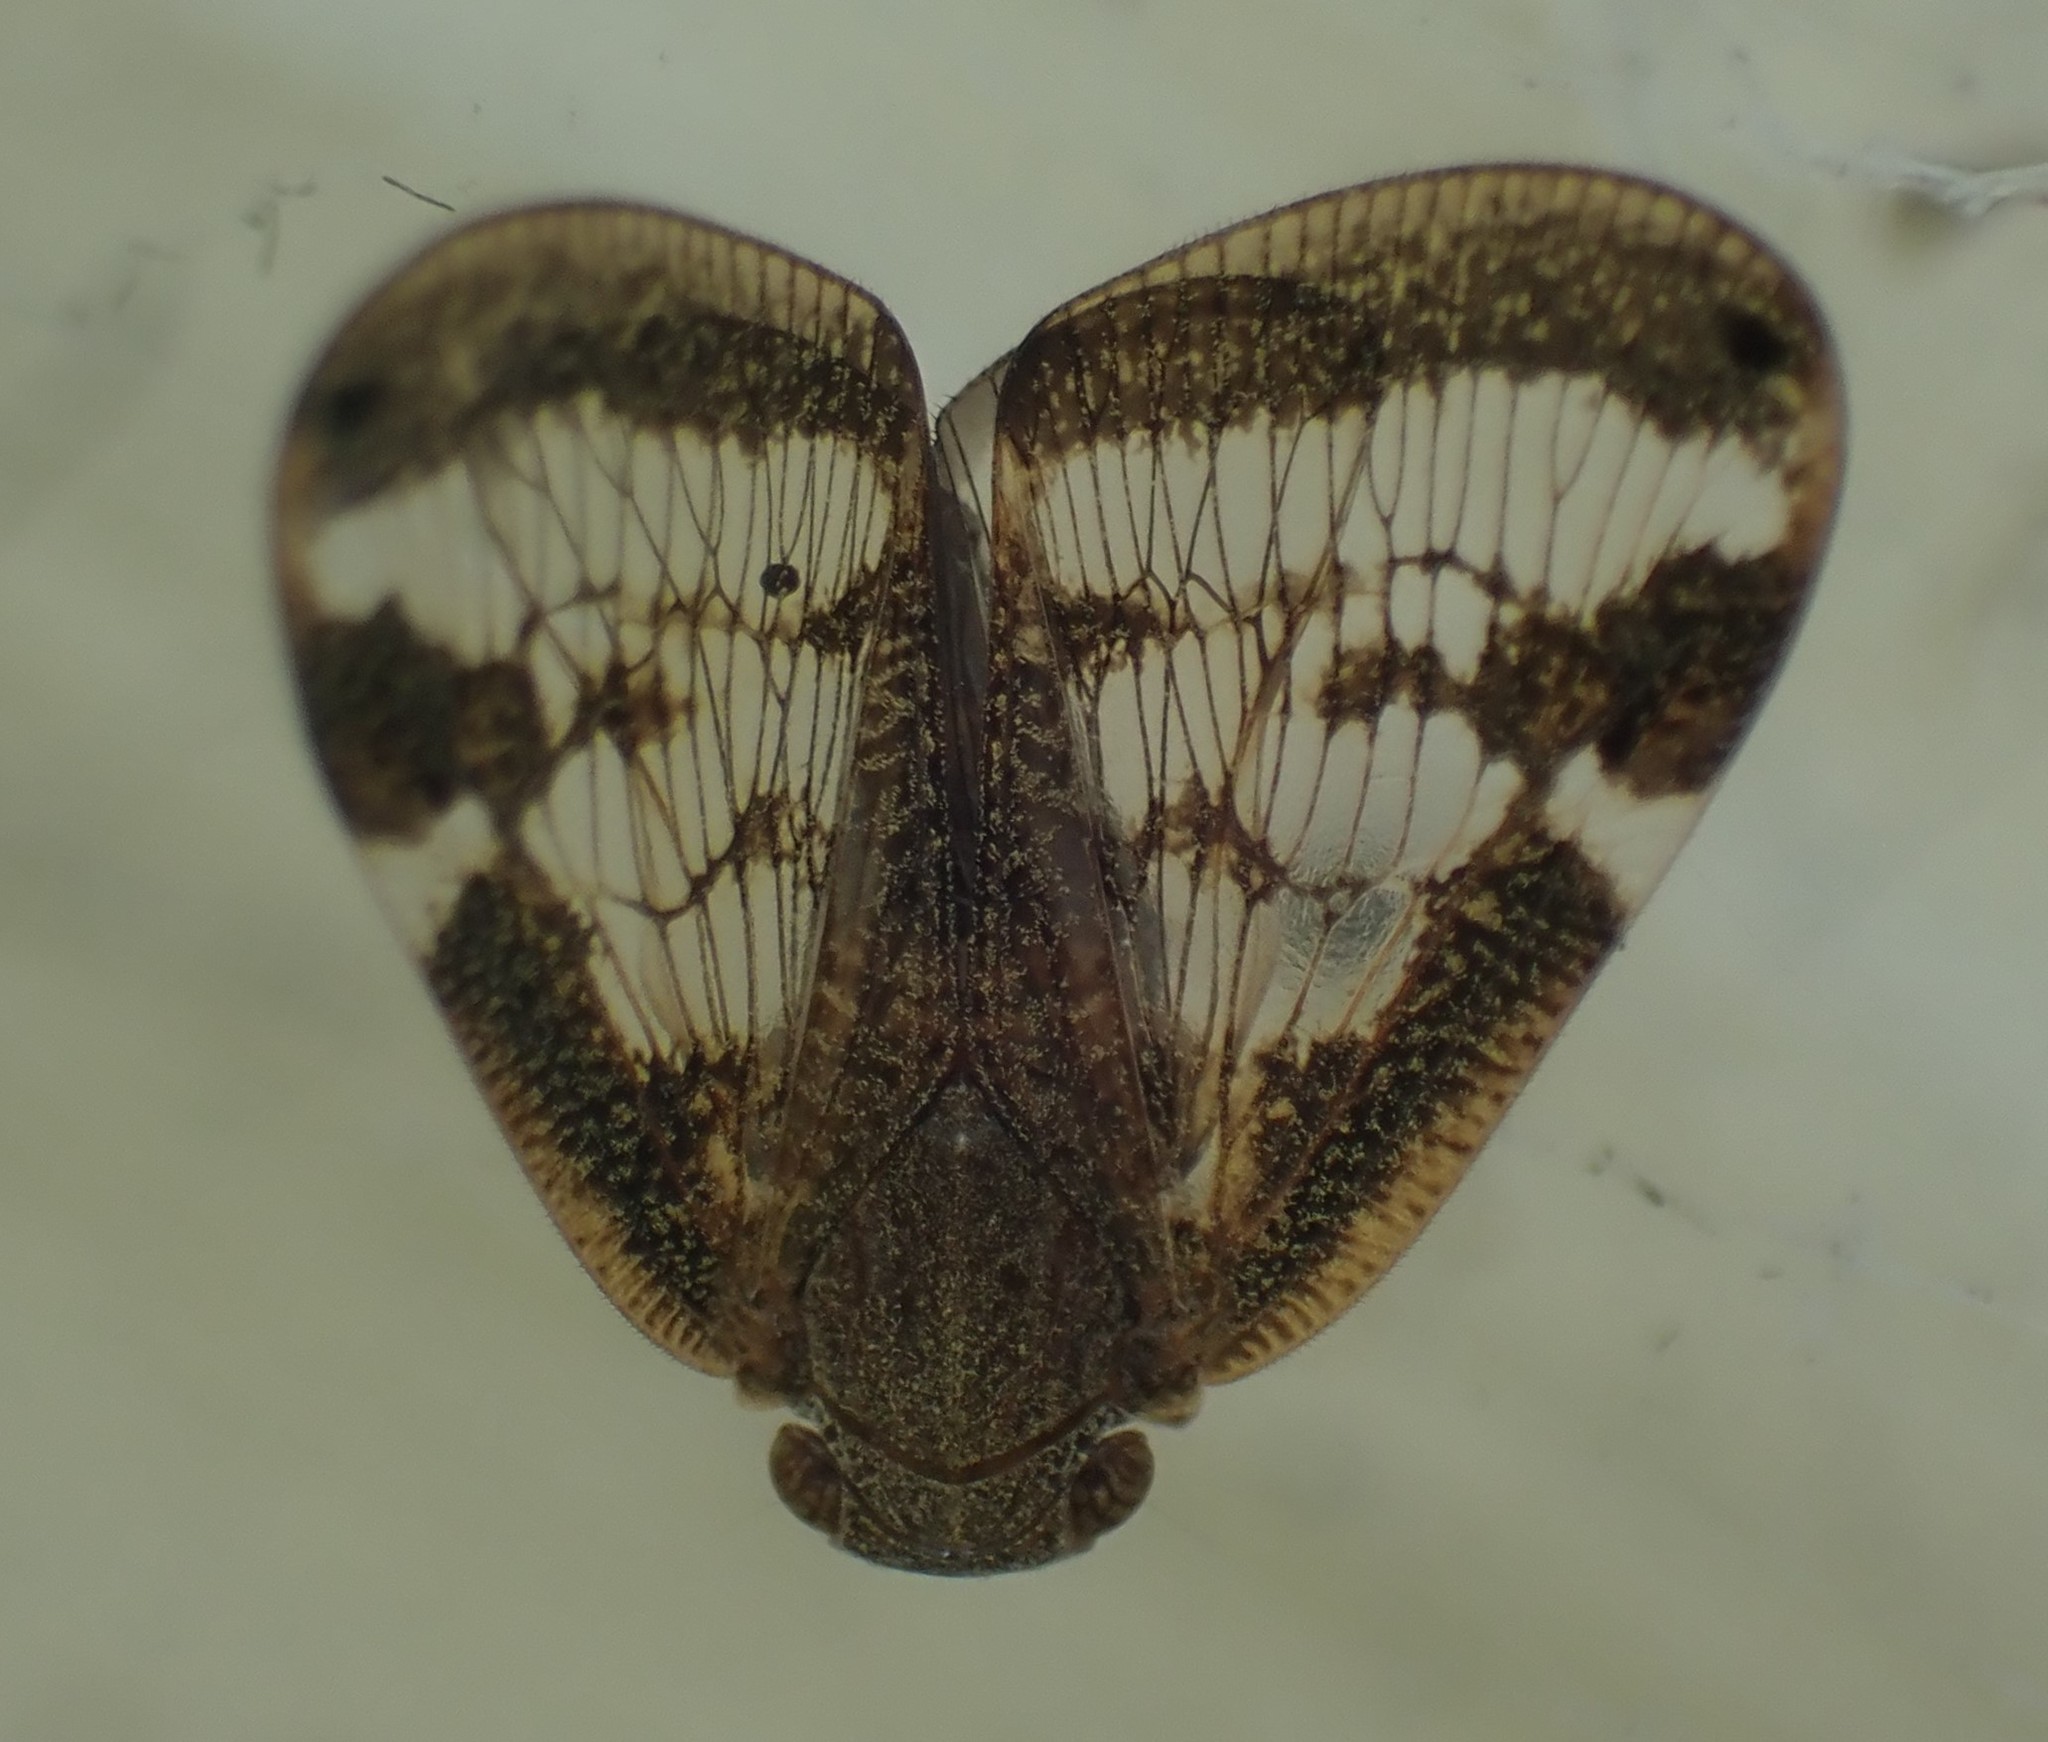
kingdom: Animalia
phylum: Arthropoda
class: Insecta
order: Hemiptera
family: Ricaniidae
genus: Scolypopa
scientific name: Scolypopa australis
